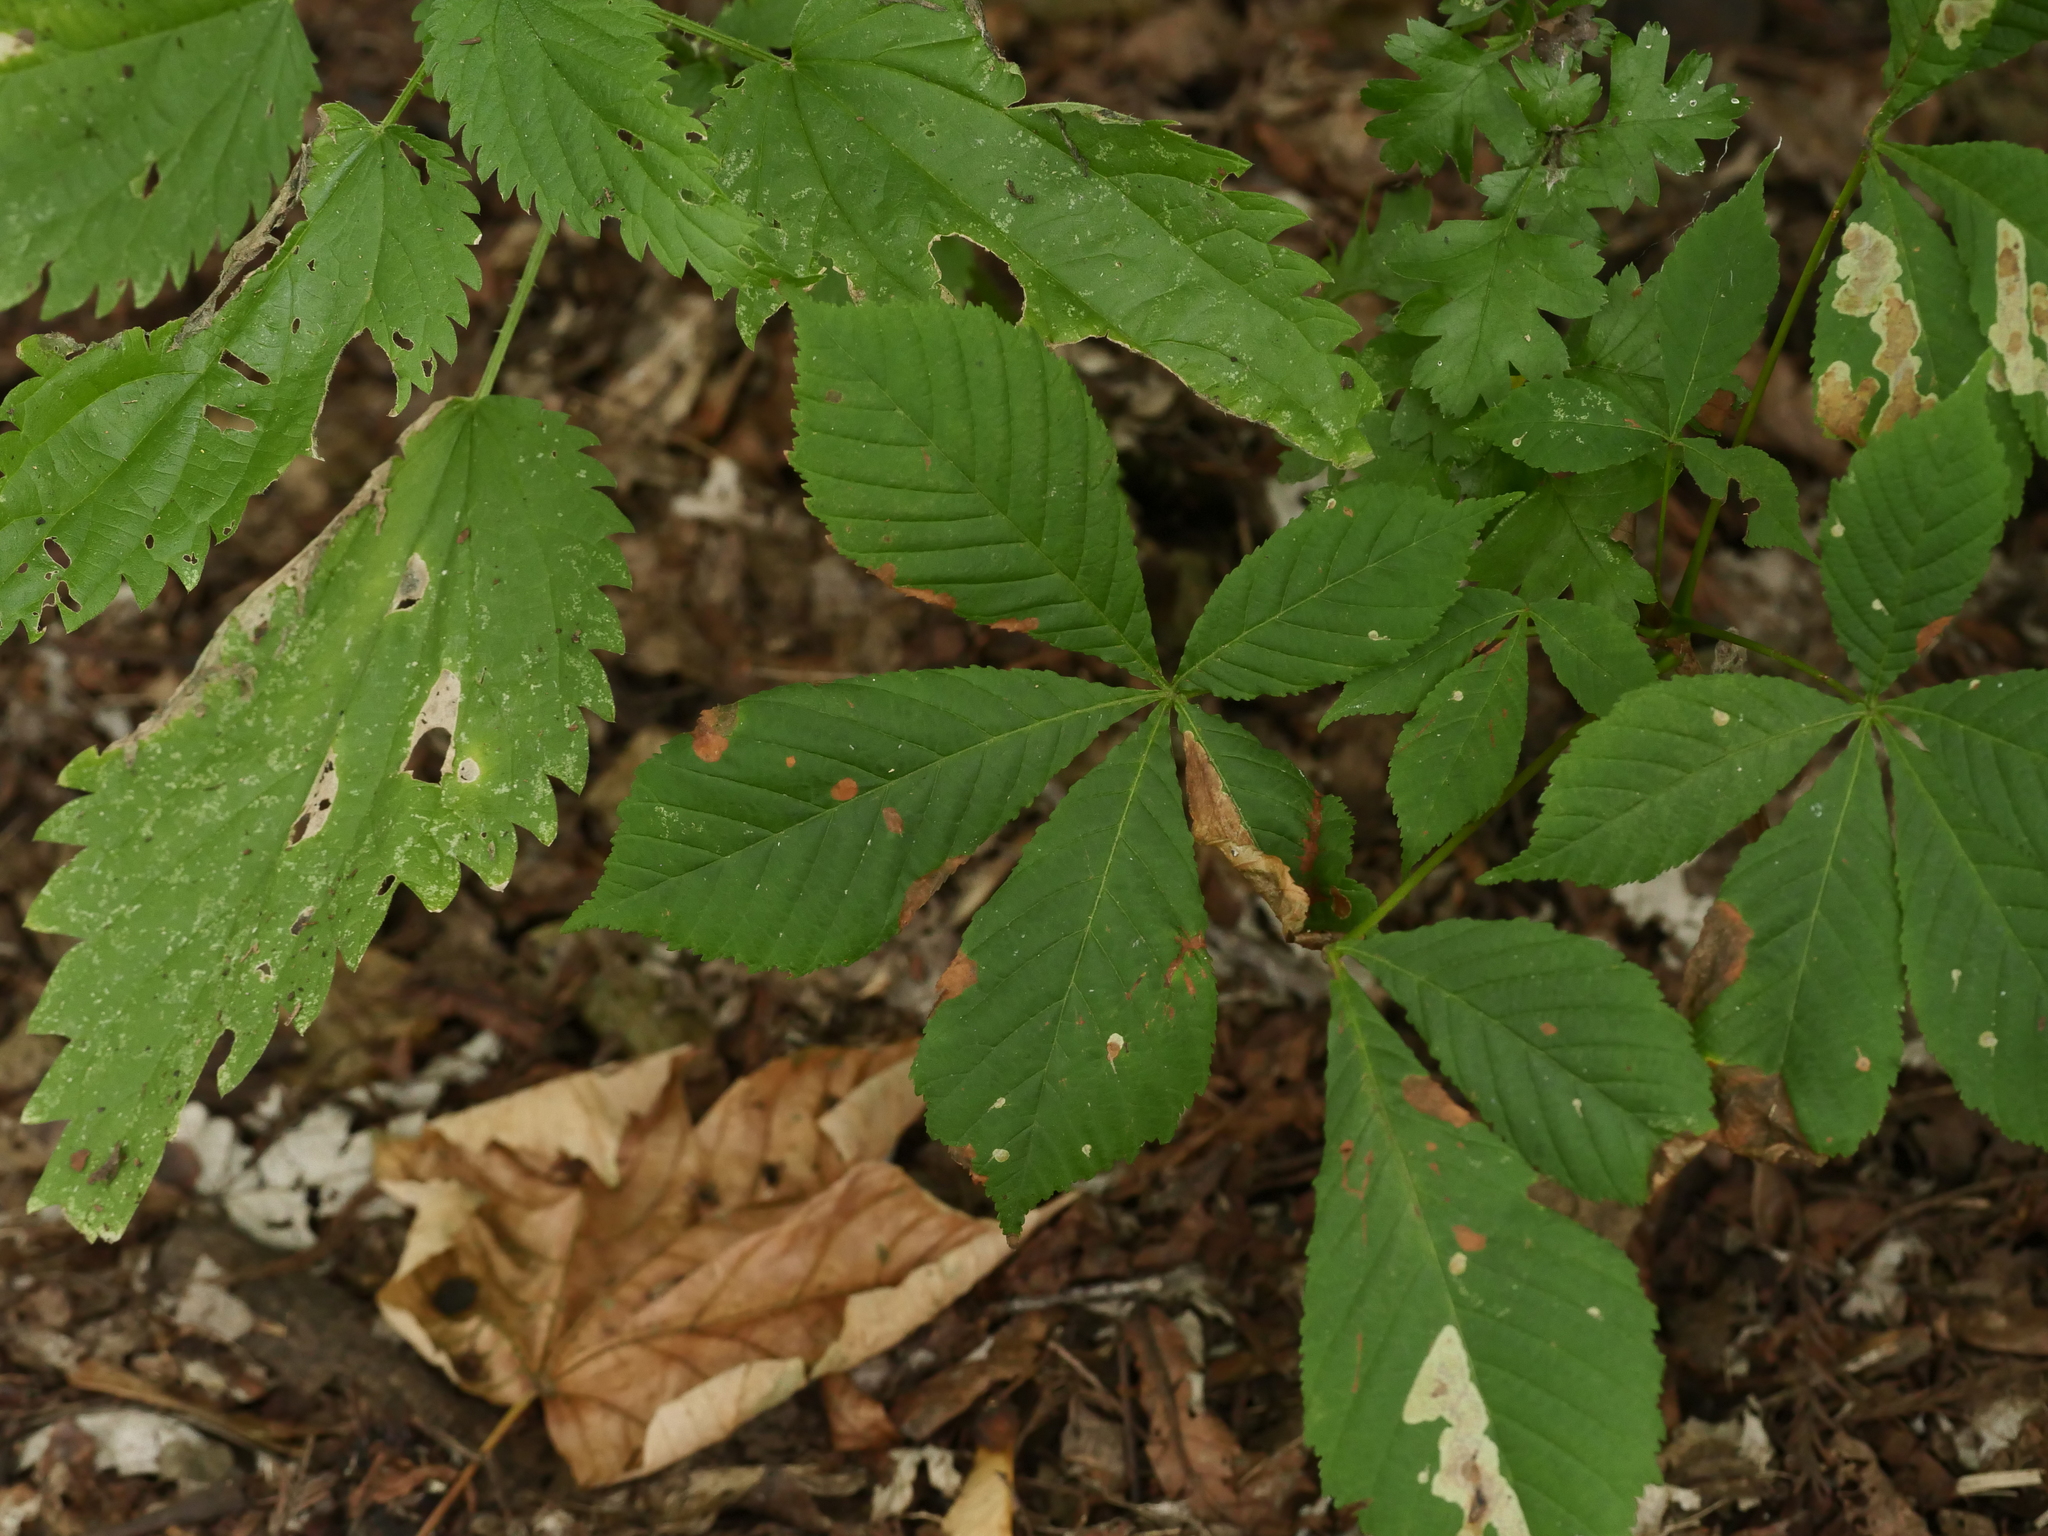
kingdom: Plantae
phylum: Tracheophyta
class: Magnoliopsida
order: Sapindales
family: Sapindaceae
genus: Aesculus
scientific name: Aesculus hippocastanum
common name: Horse-chestnut
